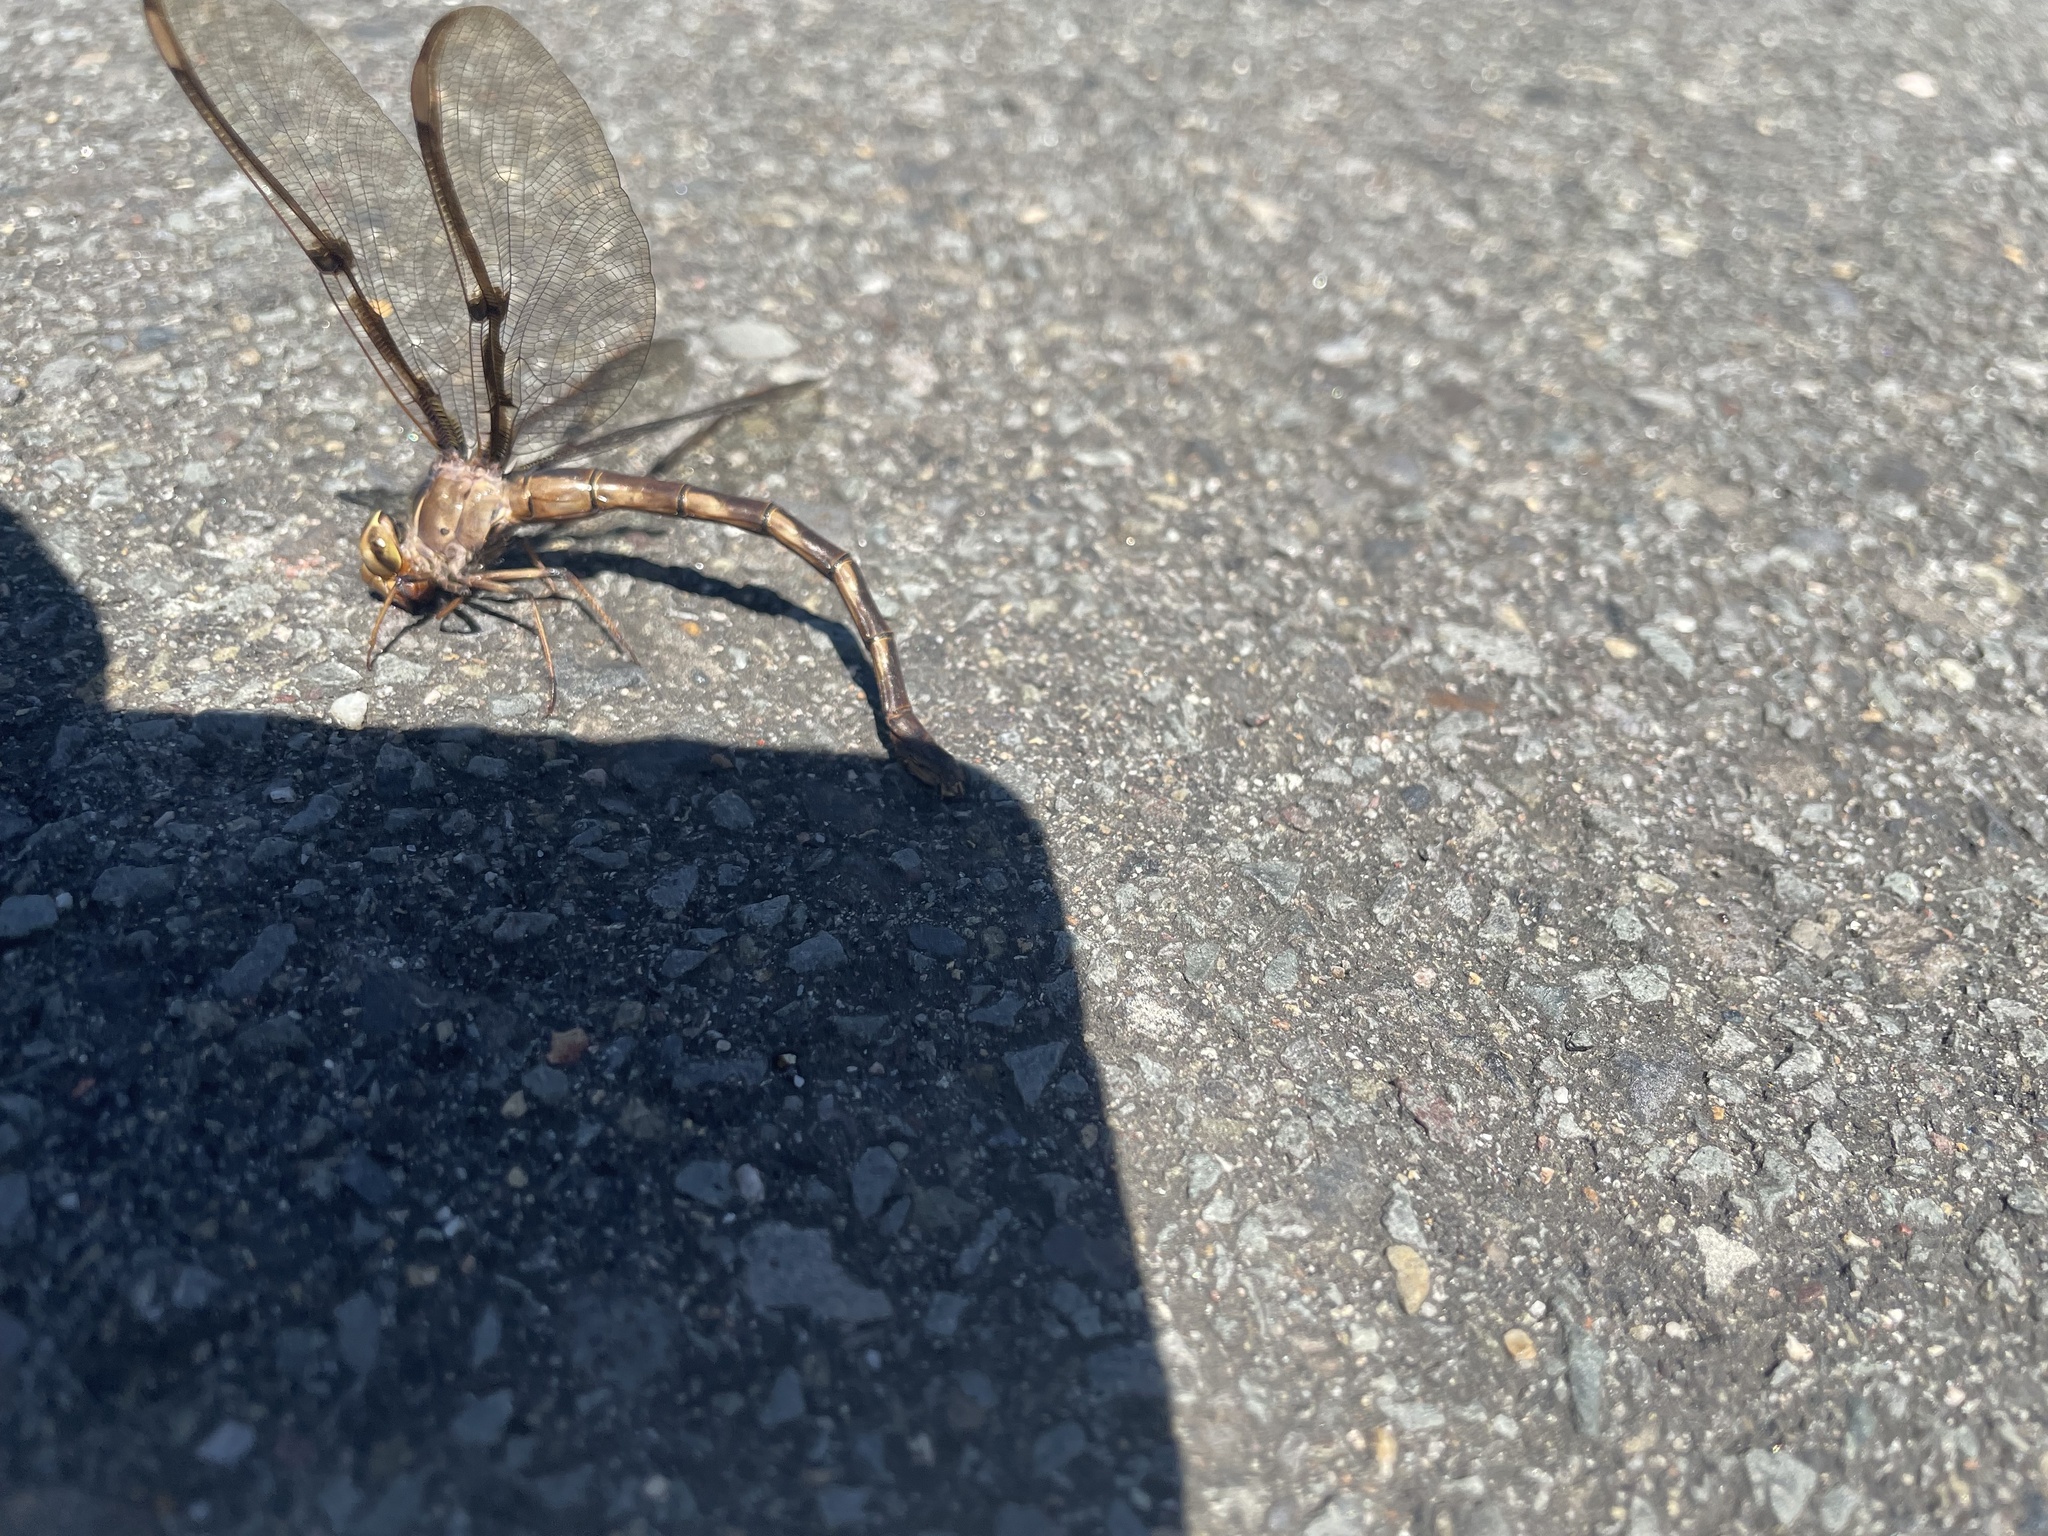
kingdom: Animalia
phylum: Arthropoda
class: Insecta
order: Odonata
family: Aeshnidae
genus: Telephlebia
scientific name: Telephlebia godeffroyi
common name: Eastern evening darner
